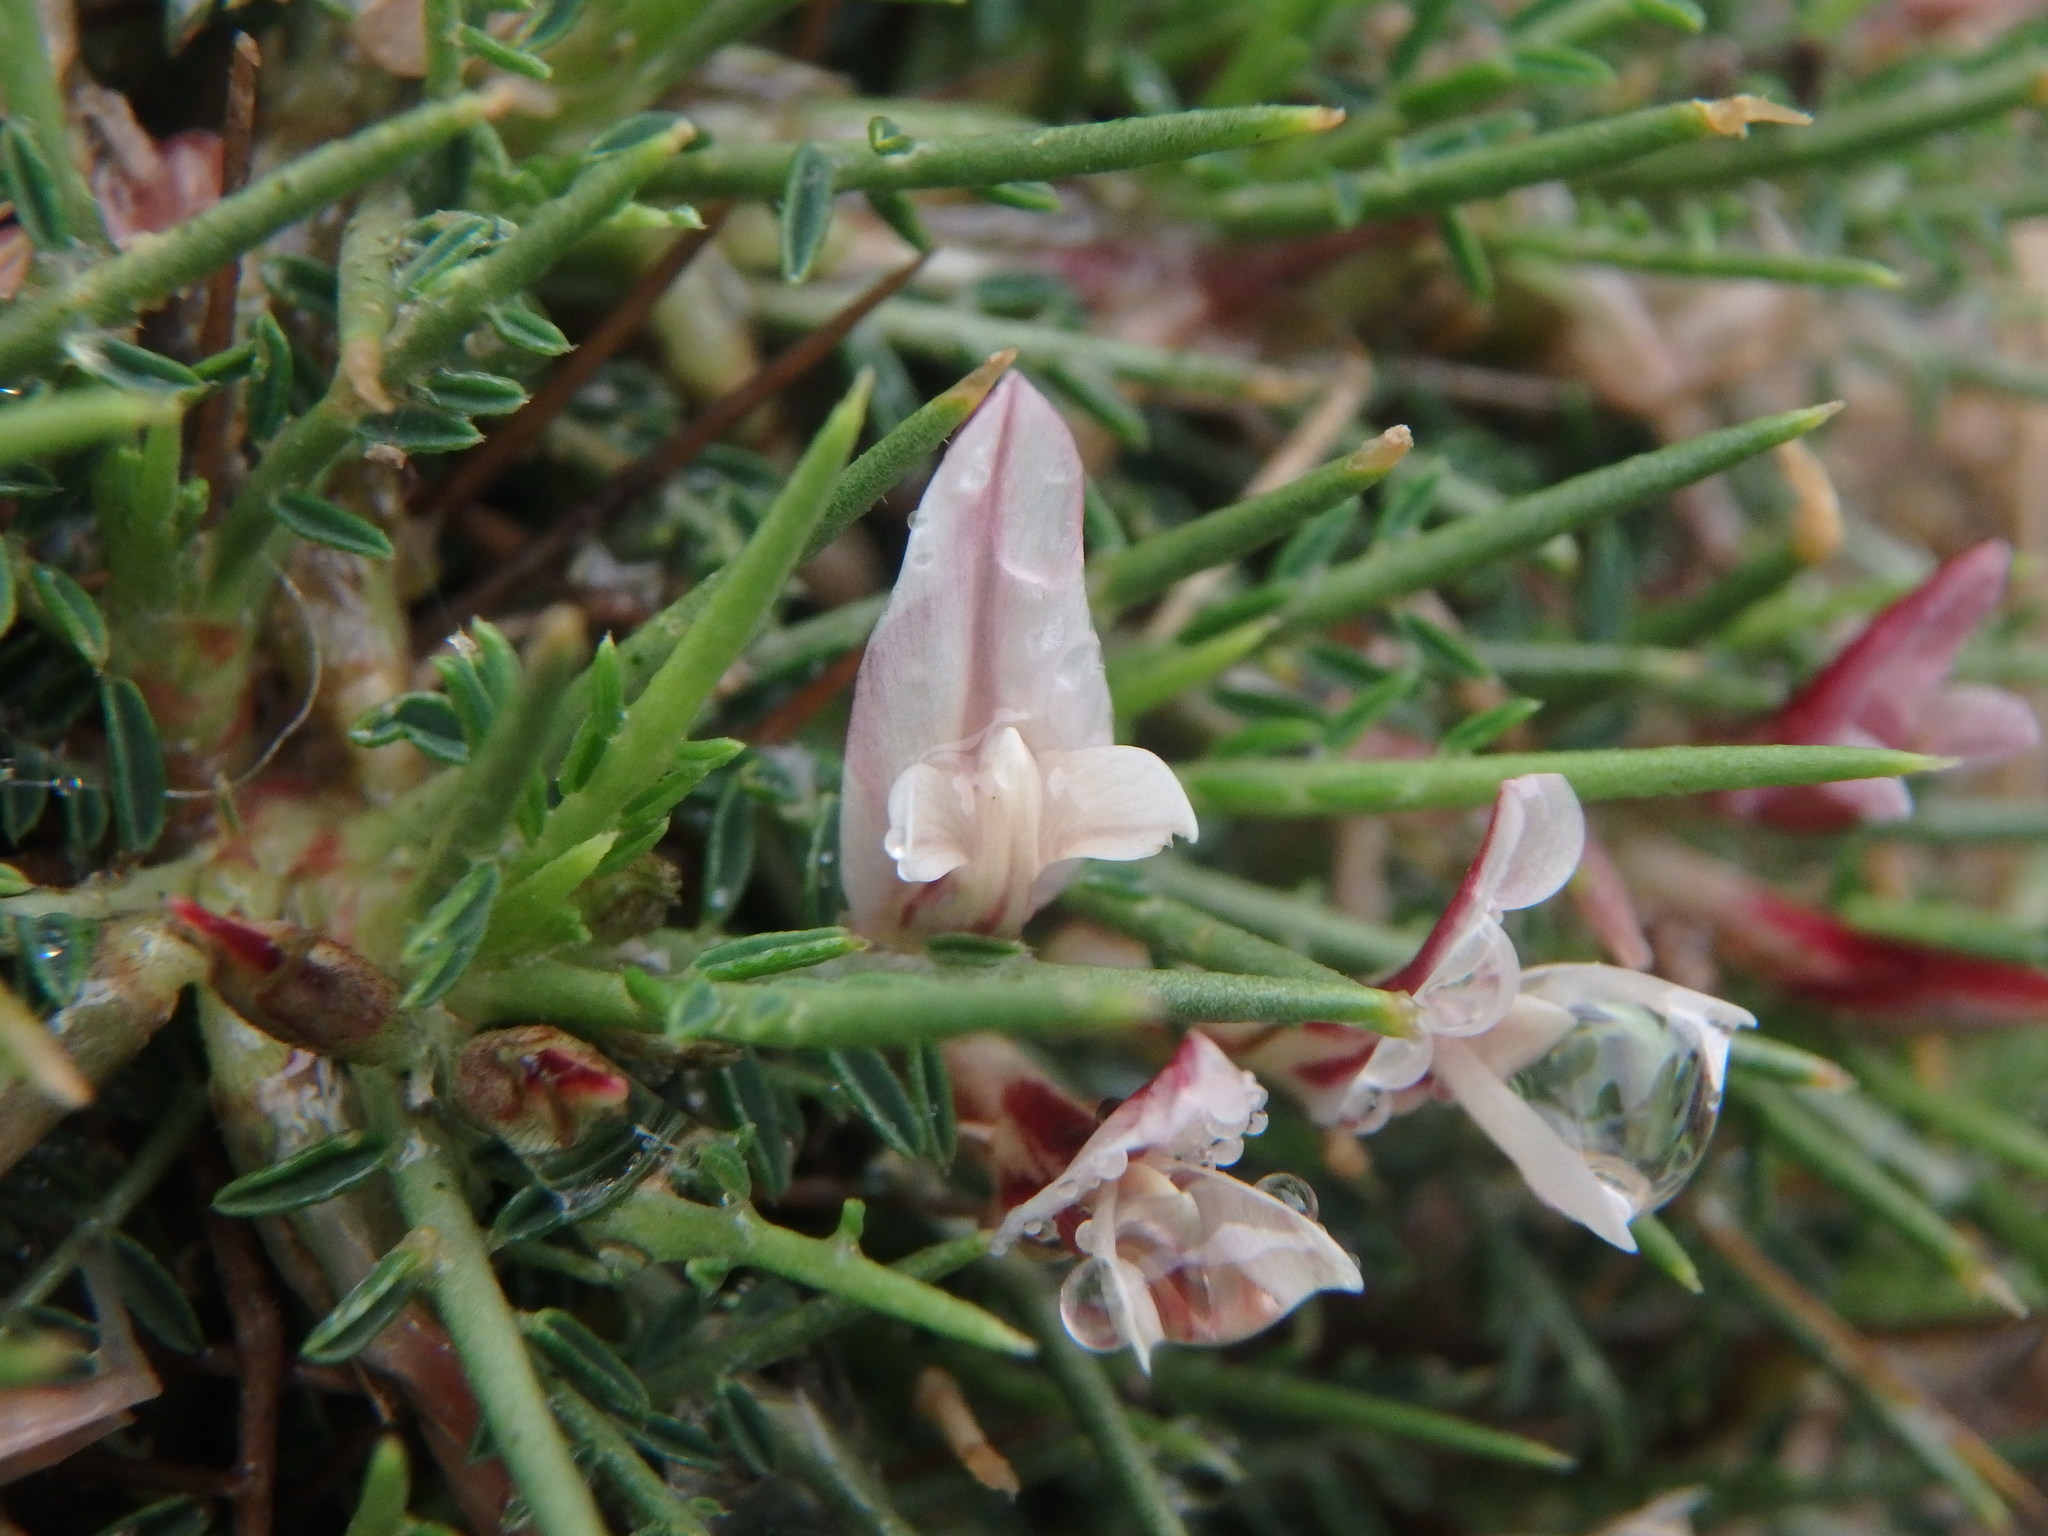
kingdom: Plantae
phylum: Tracheophyta
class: Magnoliopsida
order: Fabales
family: Fabaceae
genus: Astragalus
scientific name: Astragalus balearicus
